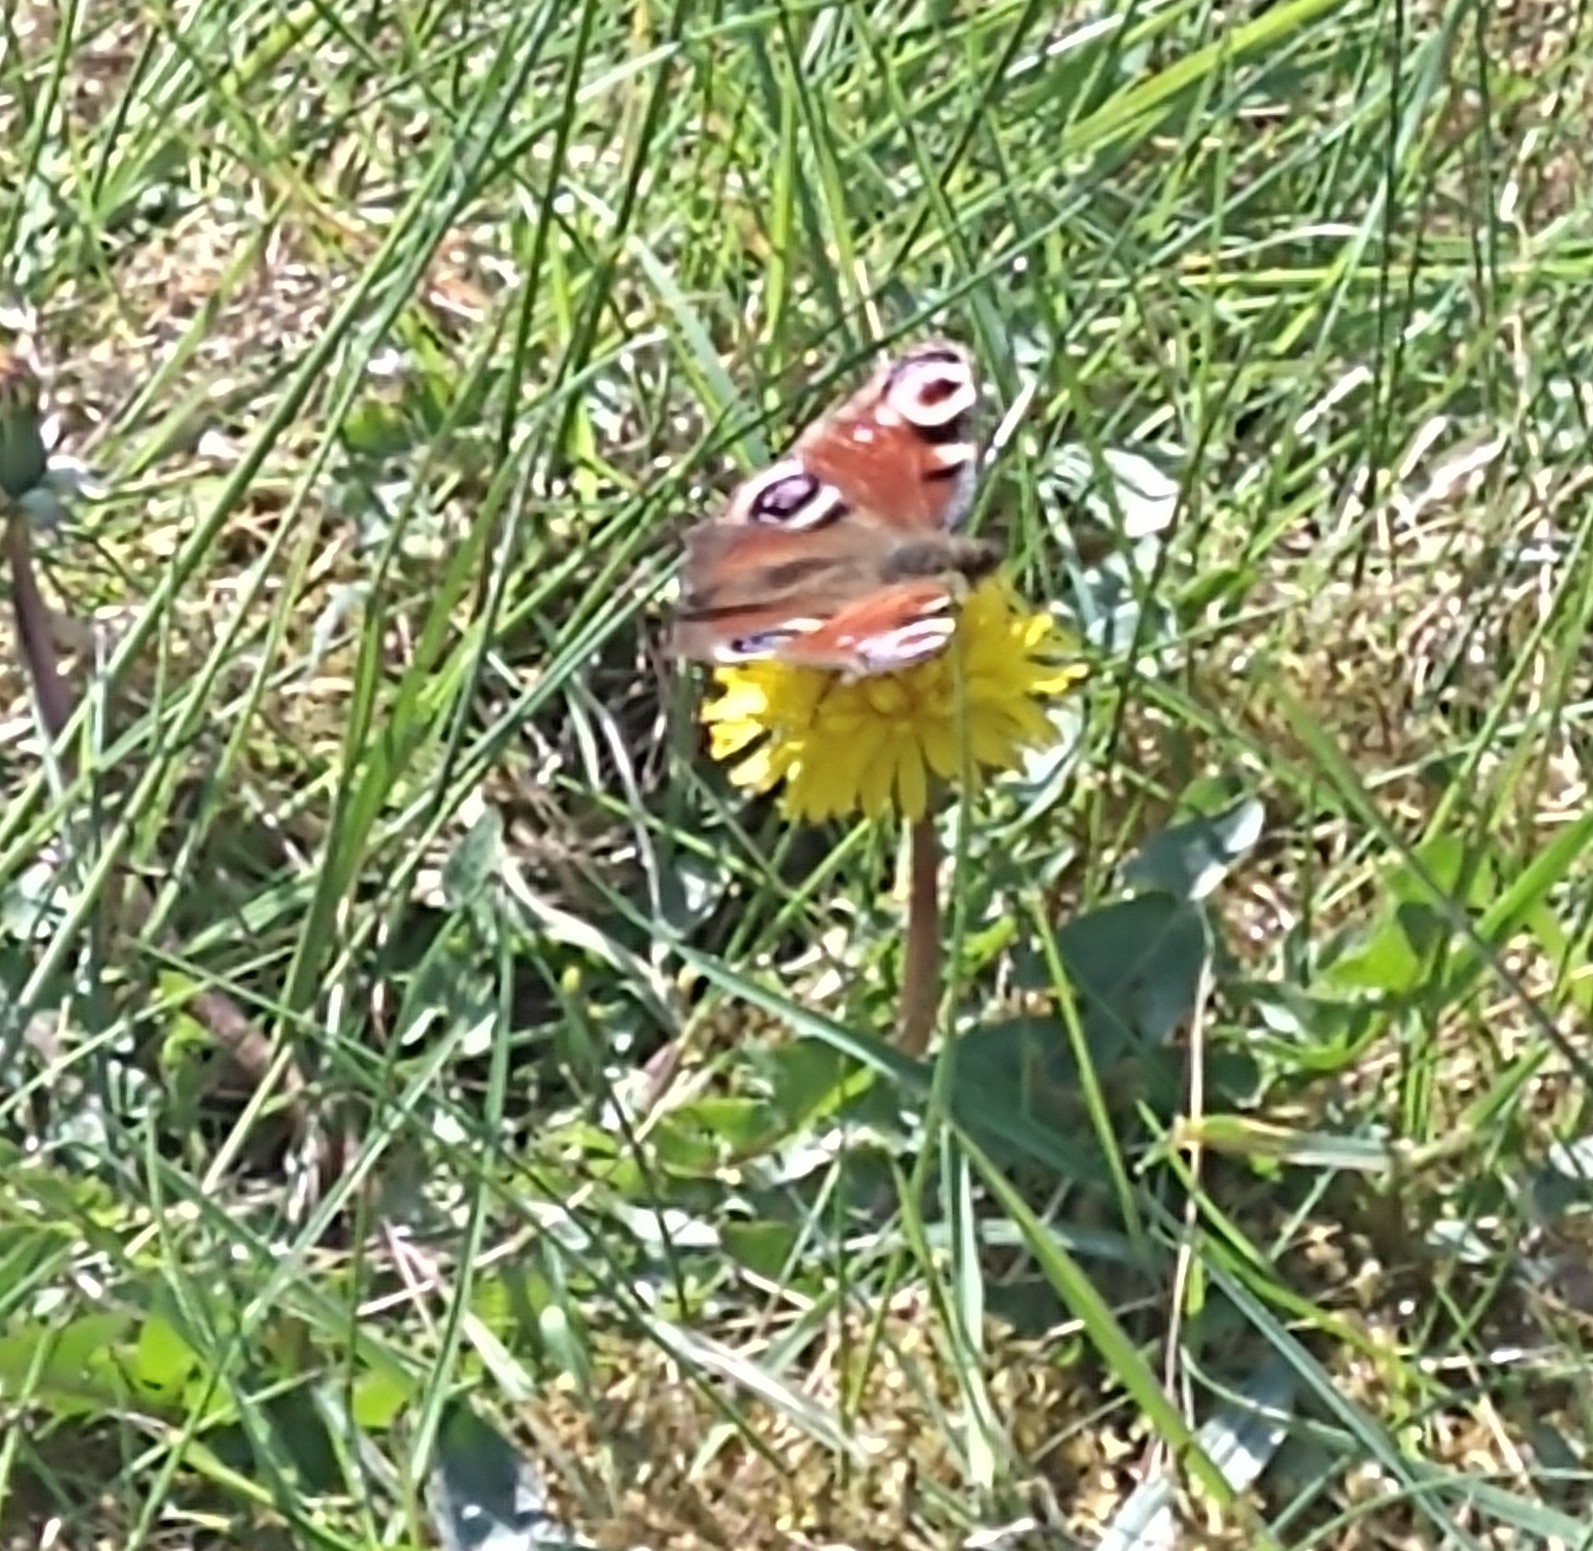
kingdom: Animalia
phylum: Arthropoda
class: Insecta
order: Lepidoptera
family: Nymphalidae
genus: Aglais
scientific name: Aglais io
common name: Peacock
